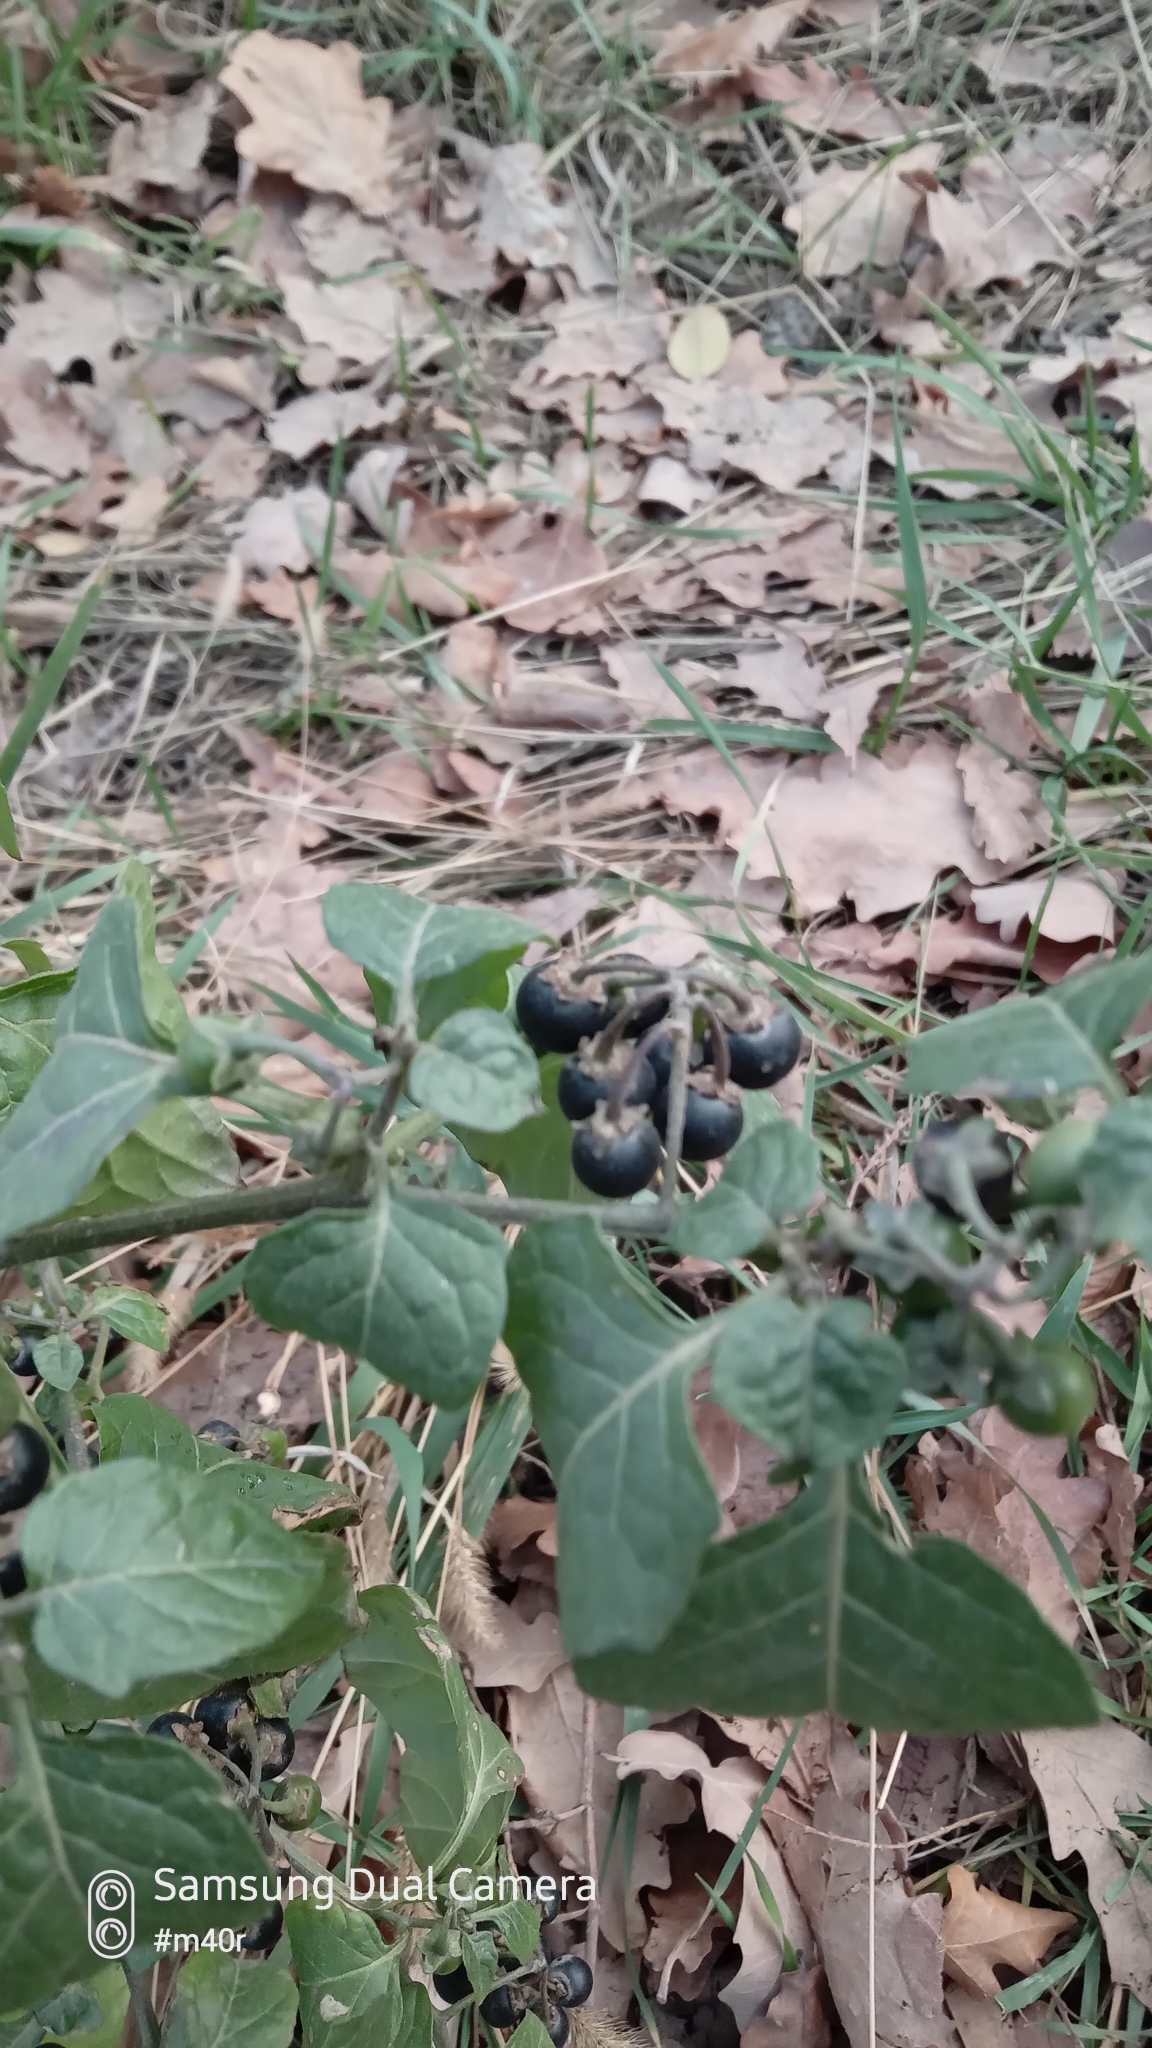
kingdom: Plantae
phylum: Tracheophyta
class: Magnoliopsida
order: Solanales
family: Solanaceae
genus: Solanum
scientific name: Solanum nigrum
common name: Black nightshade
